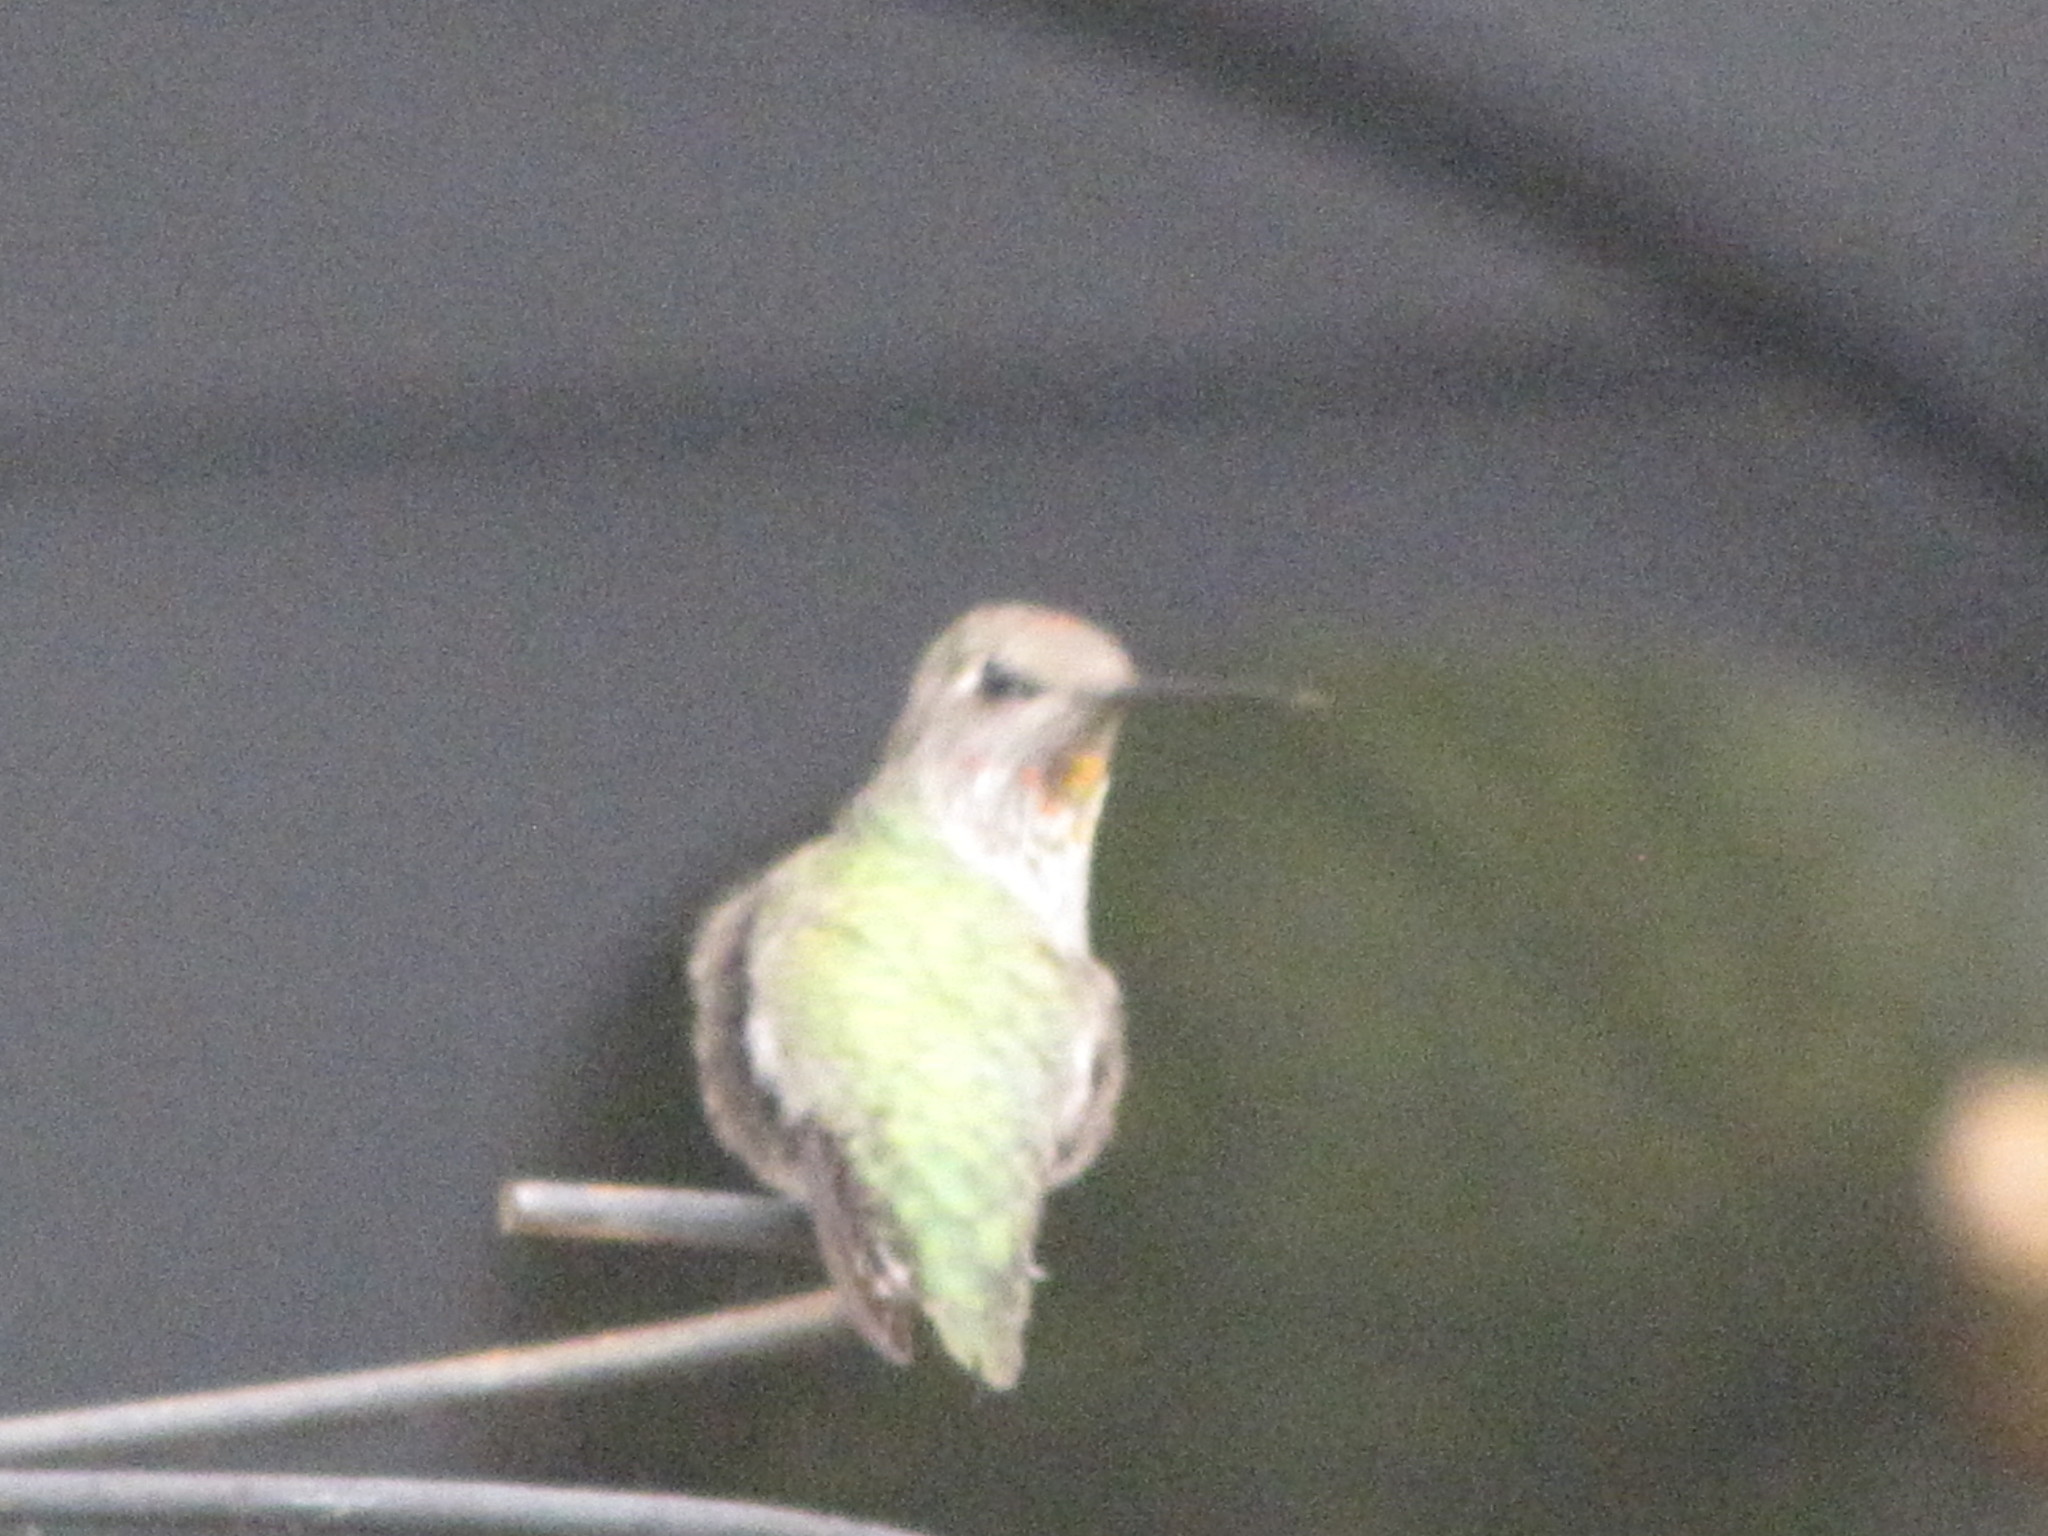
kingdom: Animalia
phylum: Chordata
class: Aves
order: Apodiformes
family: Trochilidae
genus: Calypte
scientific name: Calypte anna
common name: Anna's hummingbird
